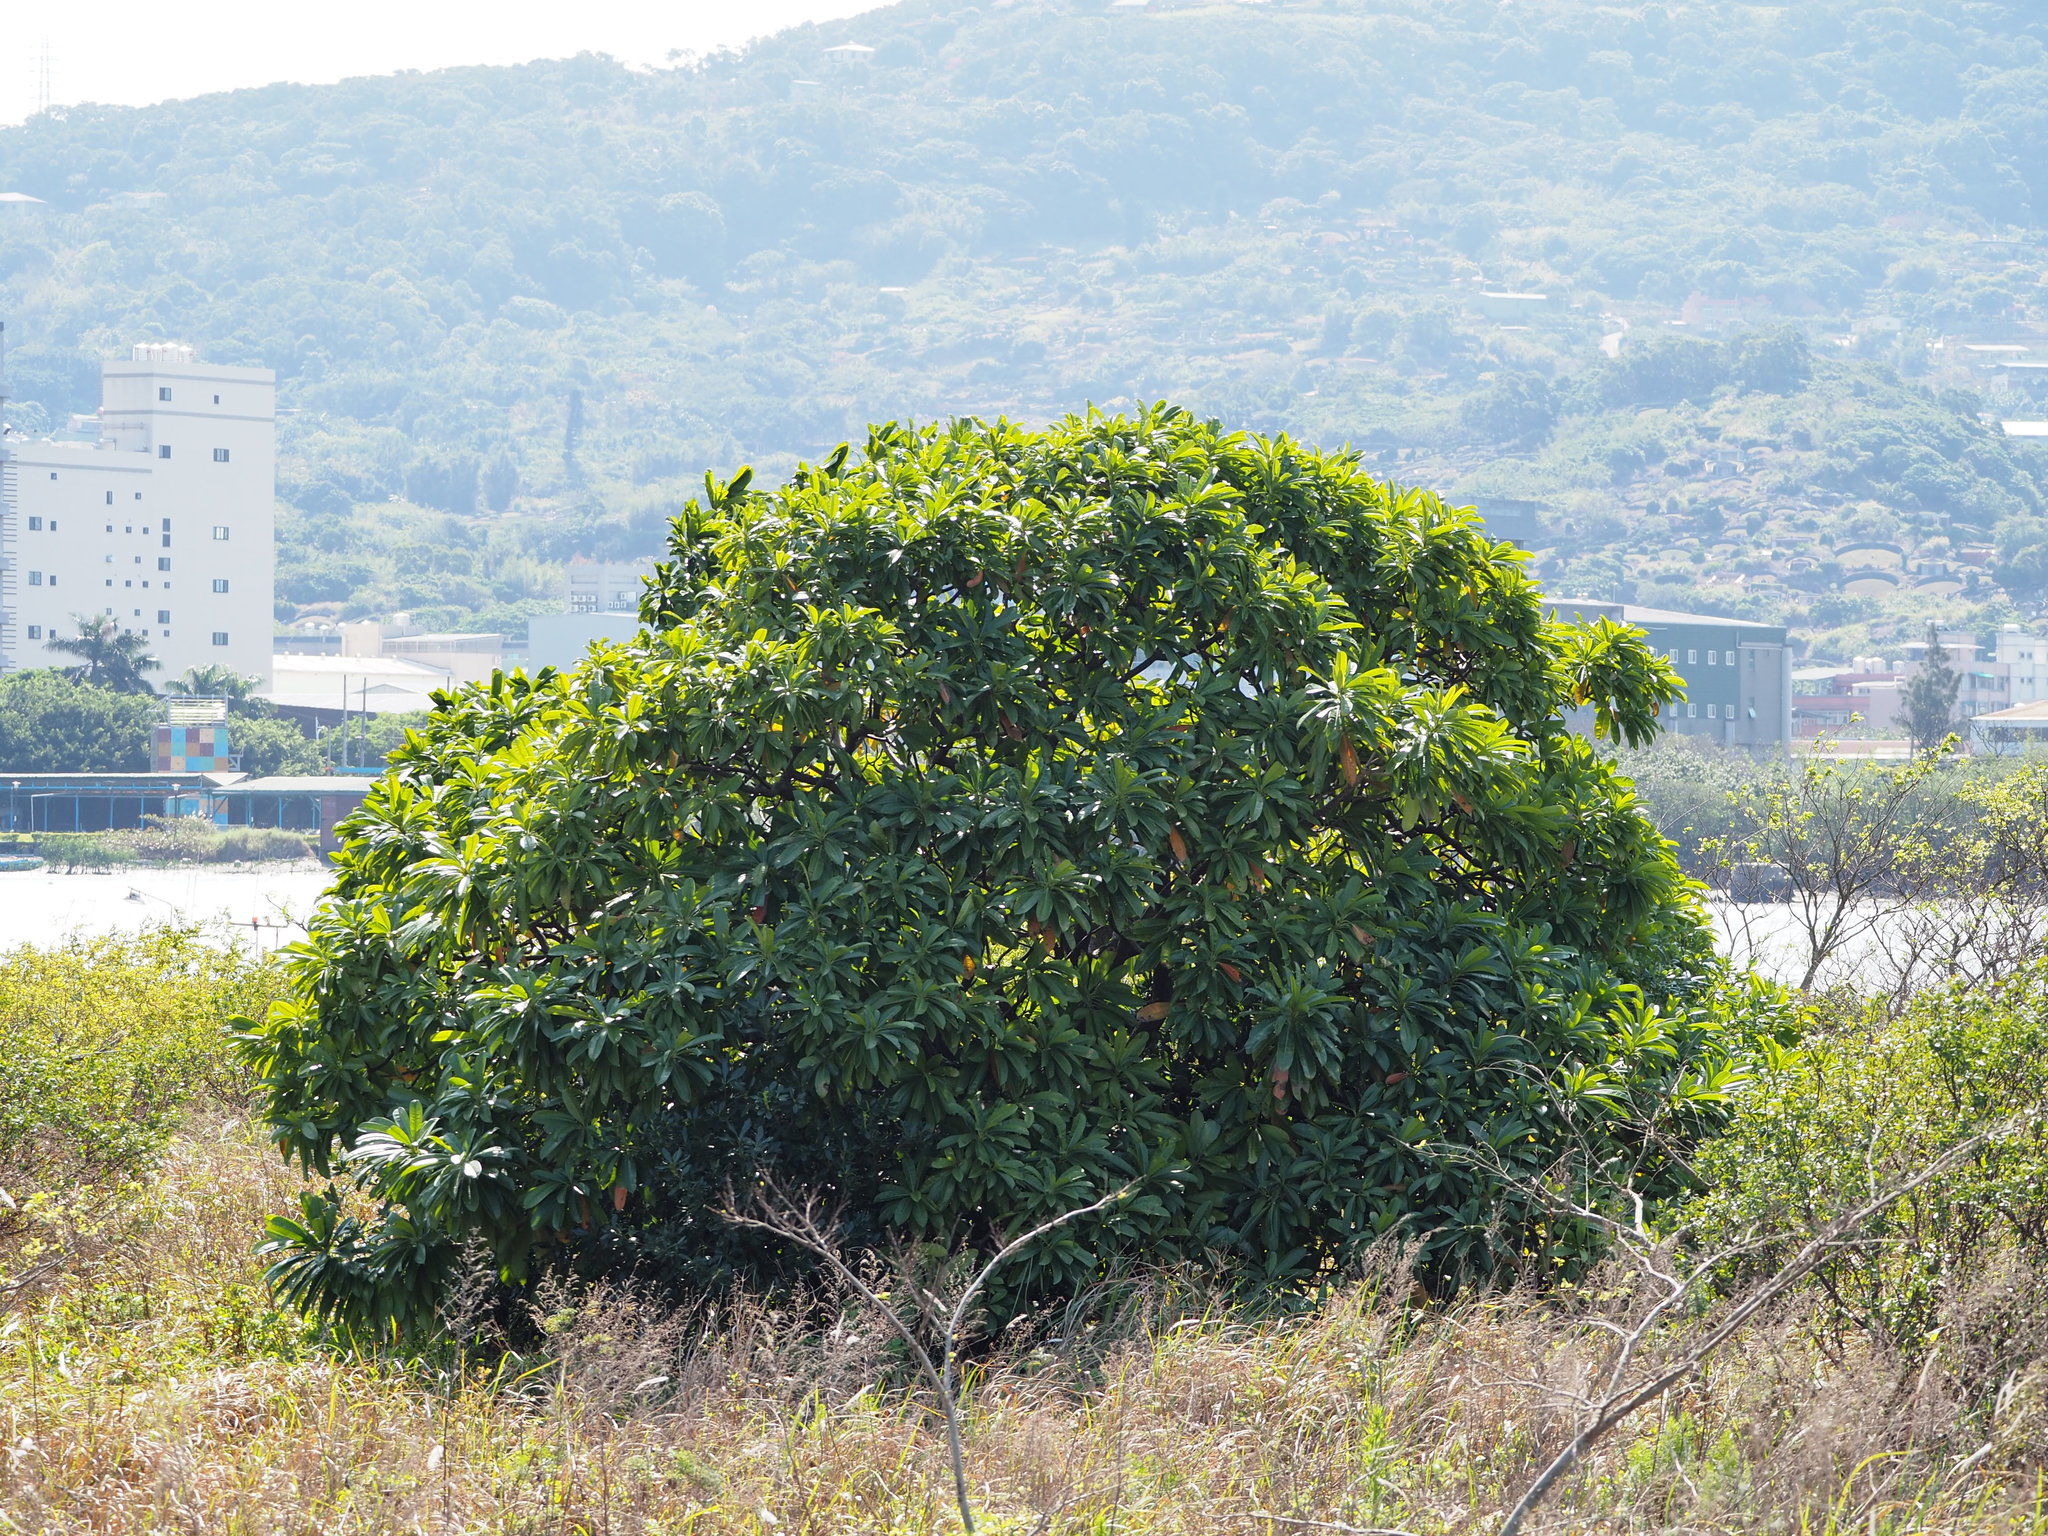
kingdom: Plantae
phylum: Tracheophyta
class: Magnoliopsida
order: Gentianales
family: Apocynaceae
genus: Cerbera
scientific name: Cerbera manghas
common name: Reva
